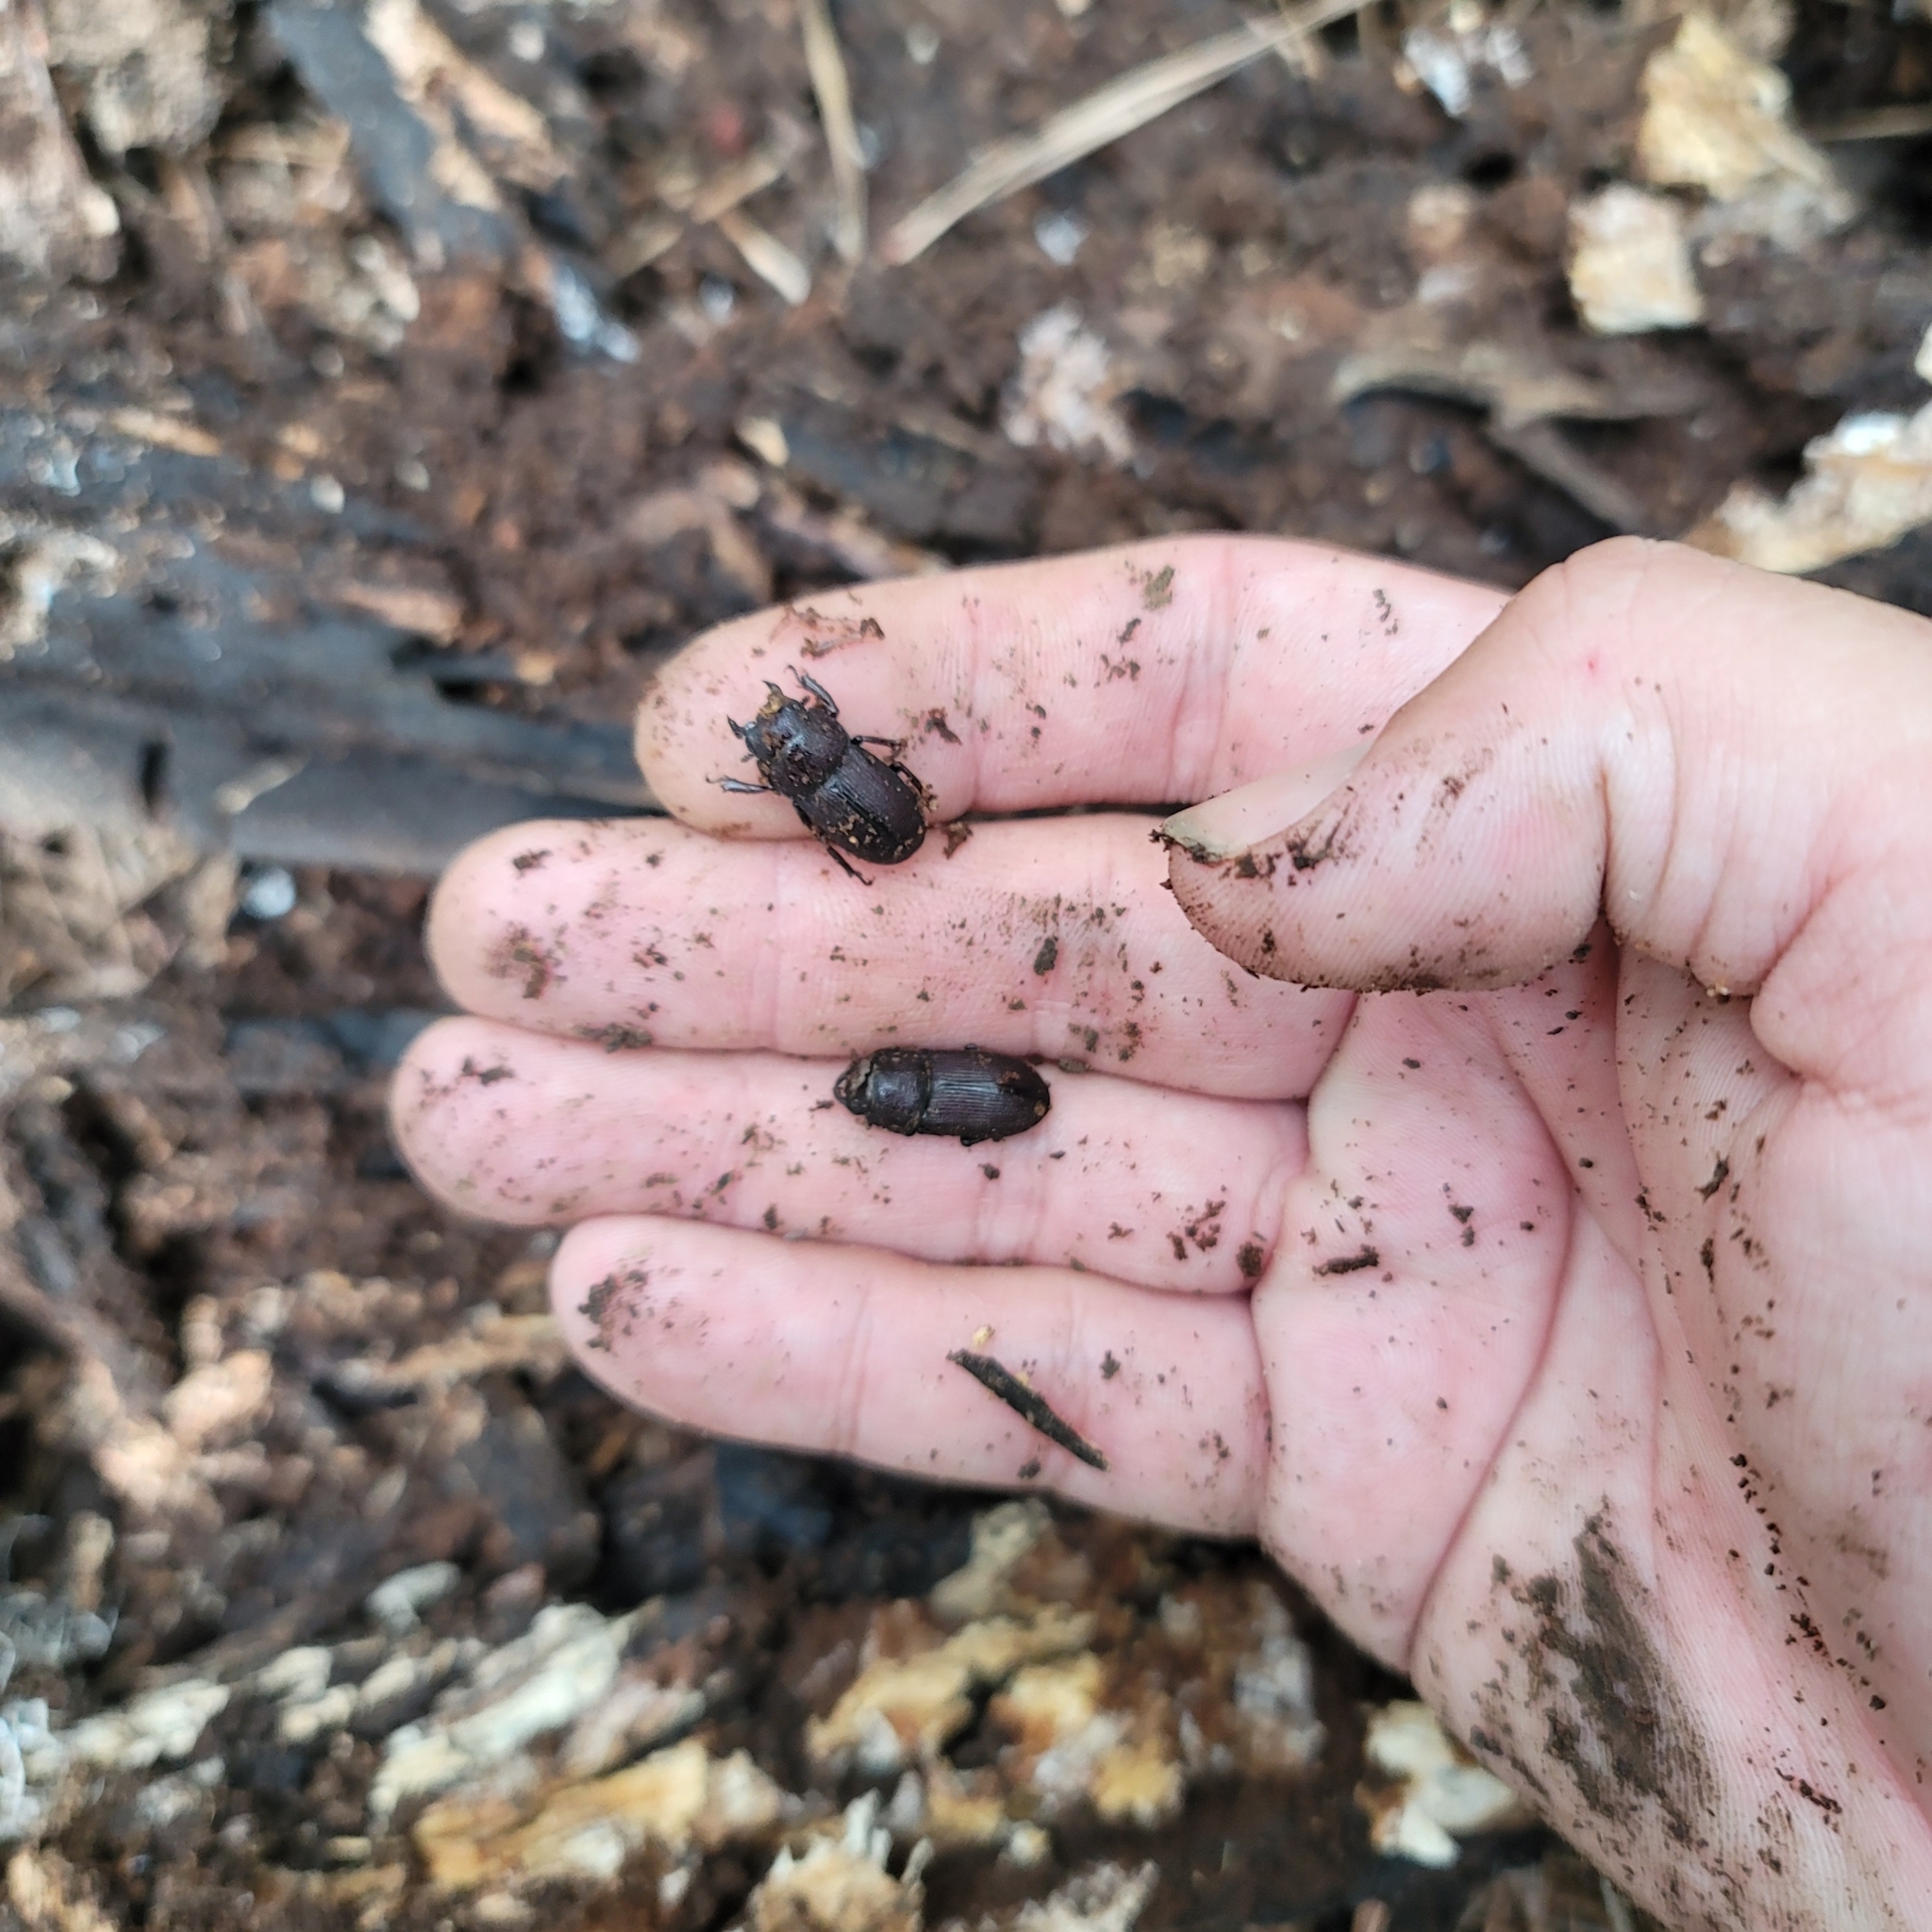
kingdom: Animalia
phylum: Arthropoda
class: Insecta
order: Coleoptera
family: Lucanidae
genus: Dorcus
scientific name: Dorcus brevis
